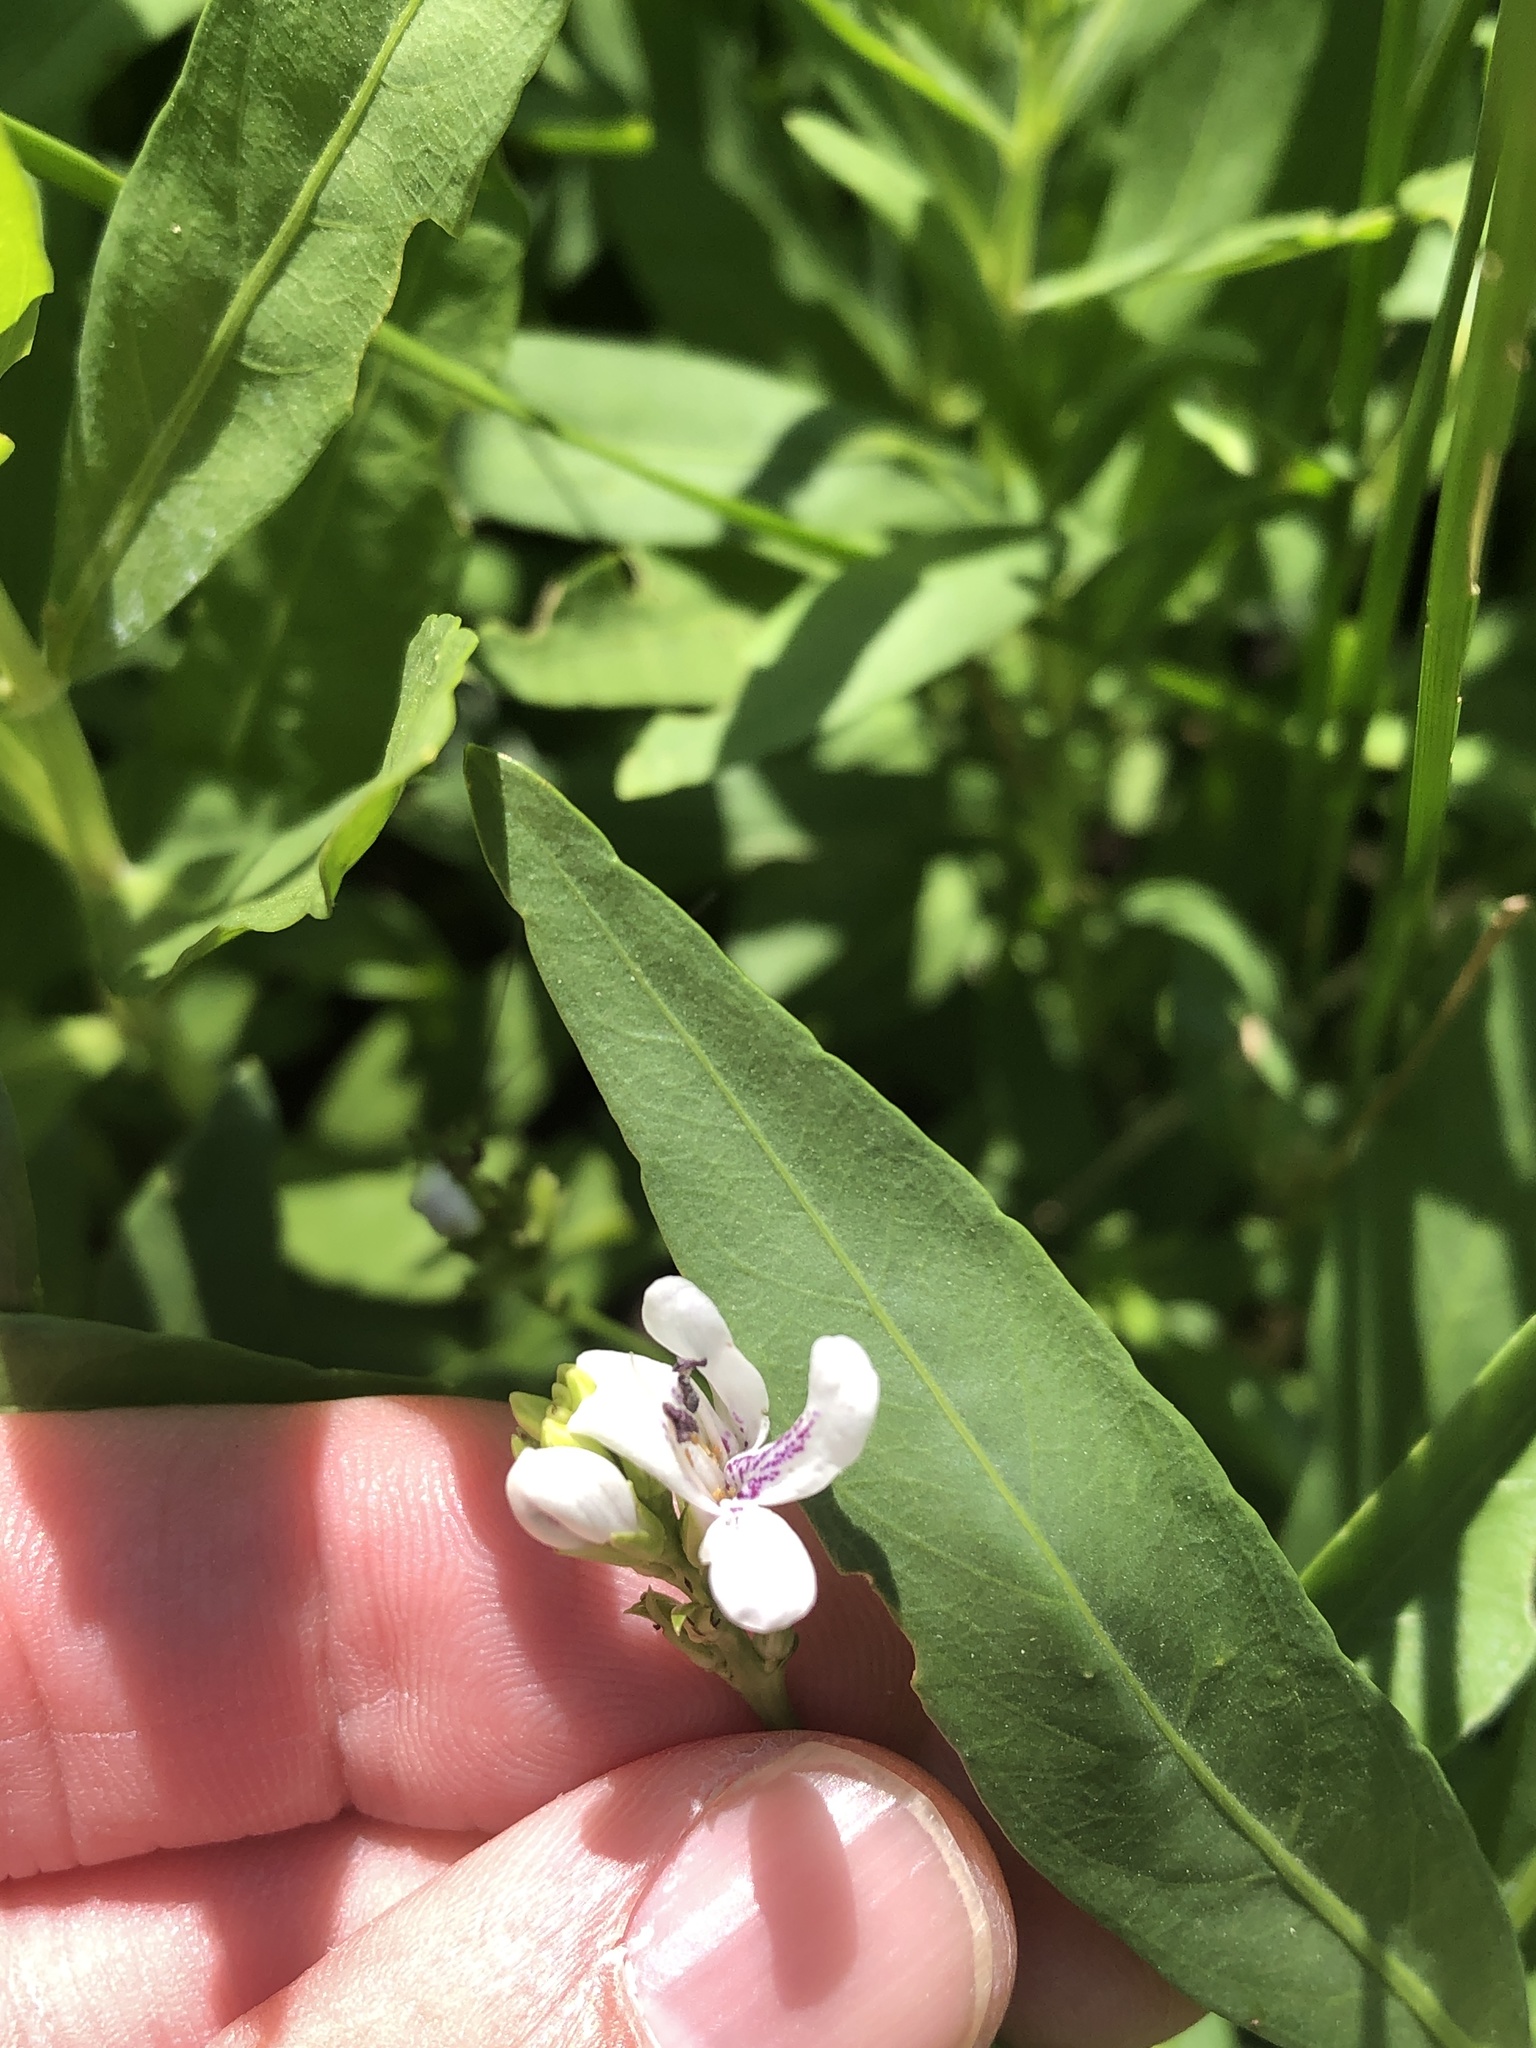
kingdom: Plantae
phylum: Tracheophyta
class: Magnoliopsida
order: Lamiales
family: Acanthaceae
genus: Dianthera
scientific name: Dianthera americana
